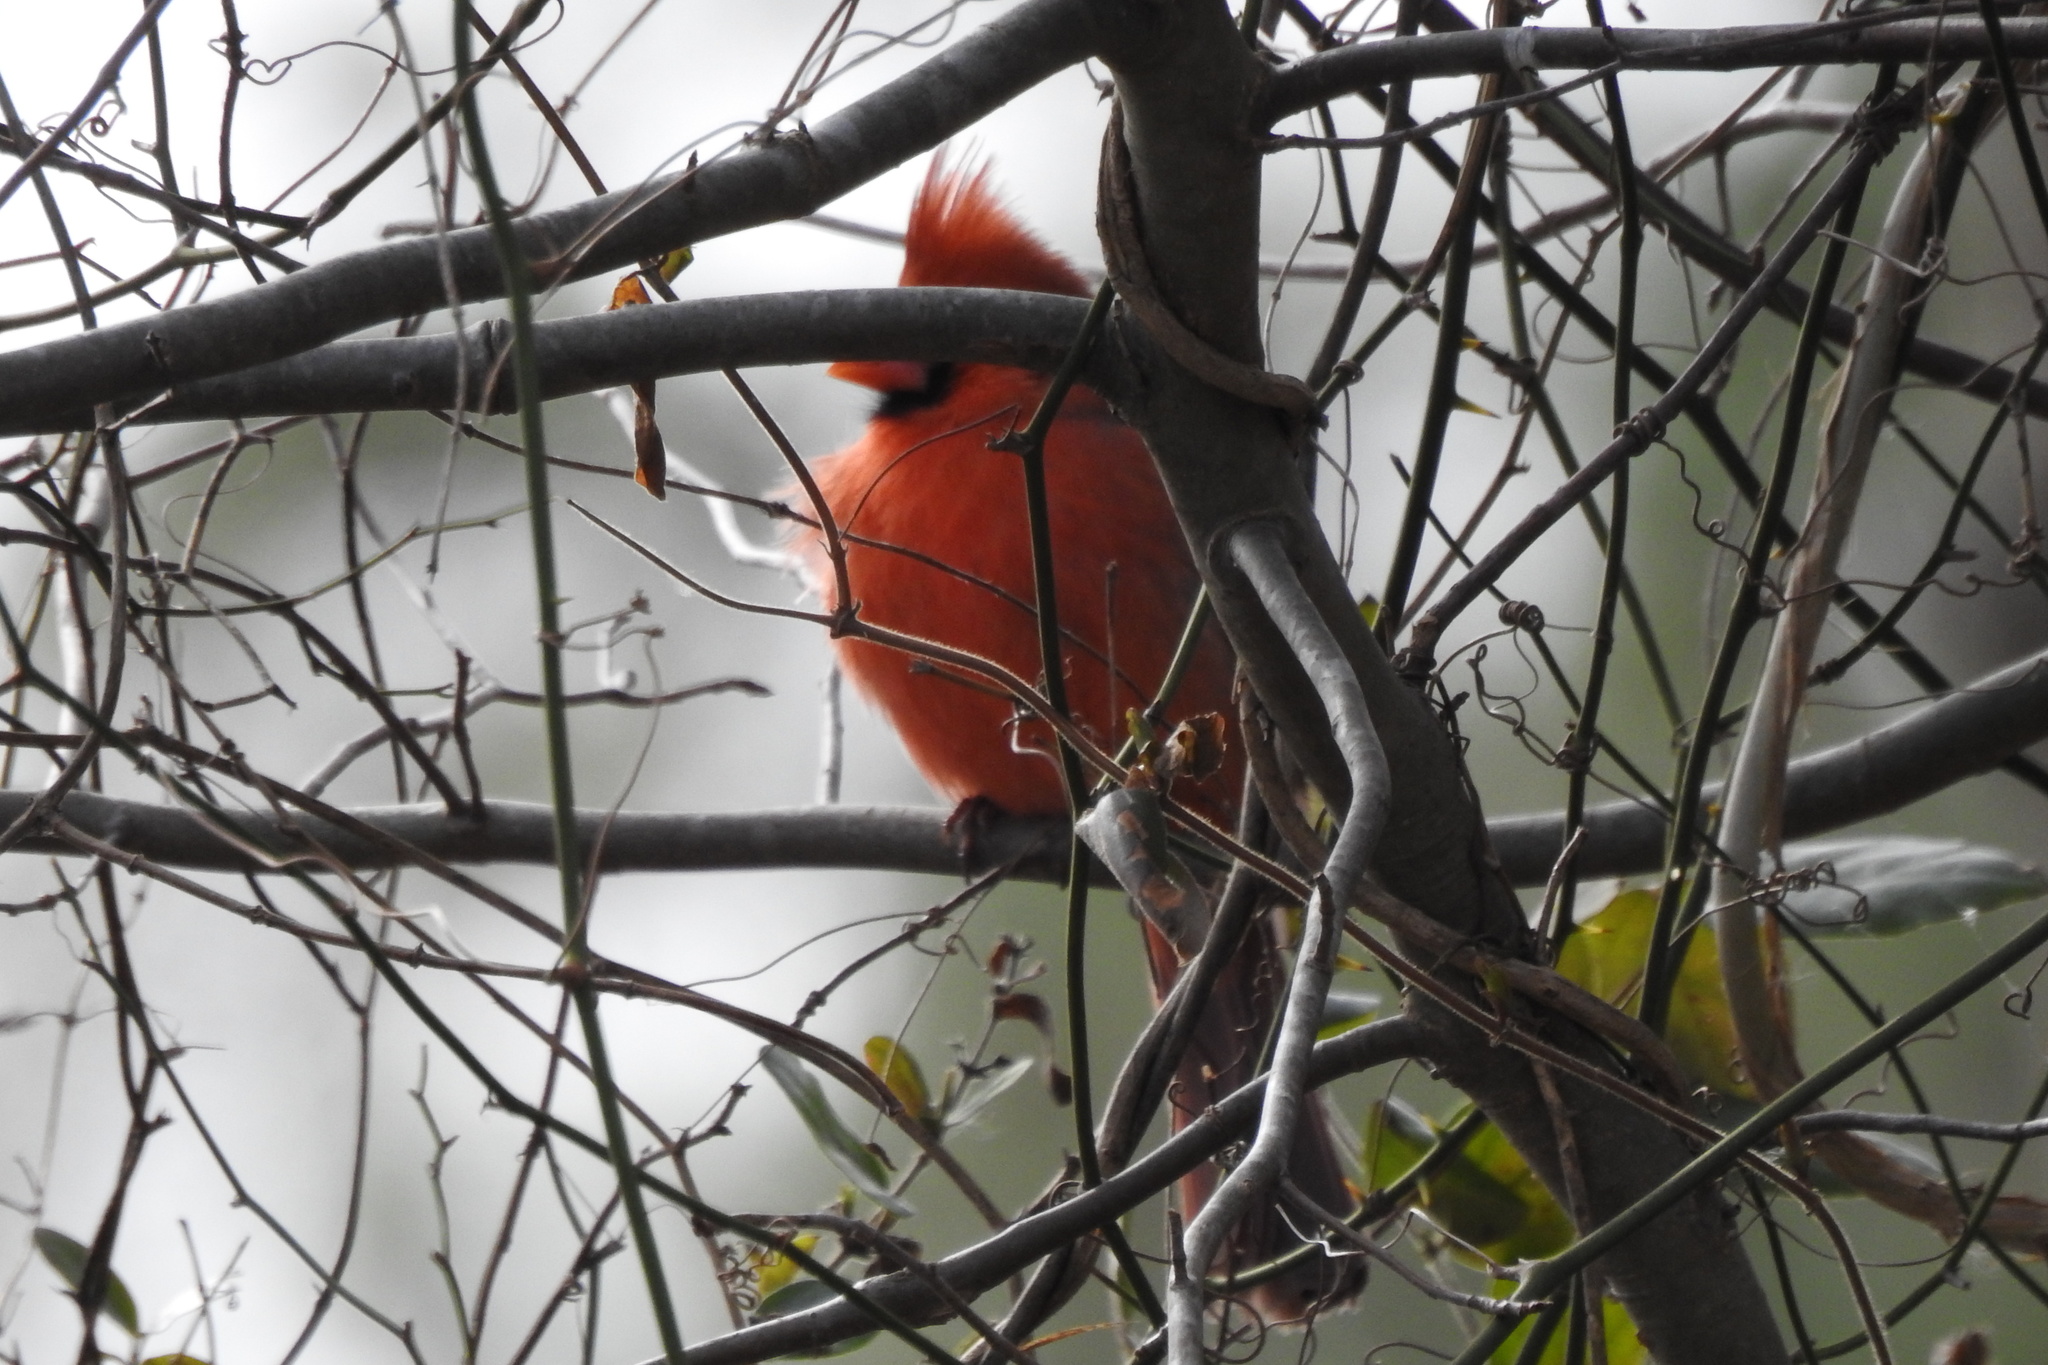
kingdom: Animalia
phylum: Chordata
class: Aves
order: Passeriformes
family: Cardinalidae
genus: Cardinalis
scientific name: Cardinalis cardinalis
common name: Northern cardinal
